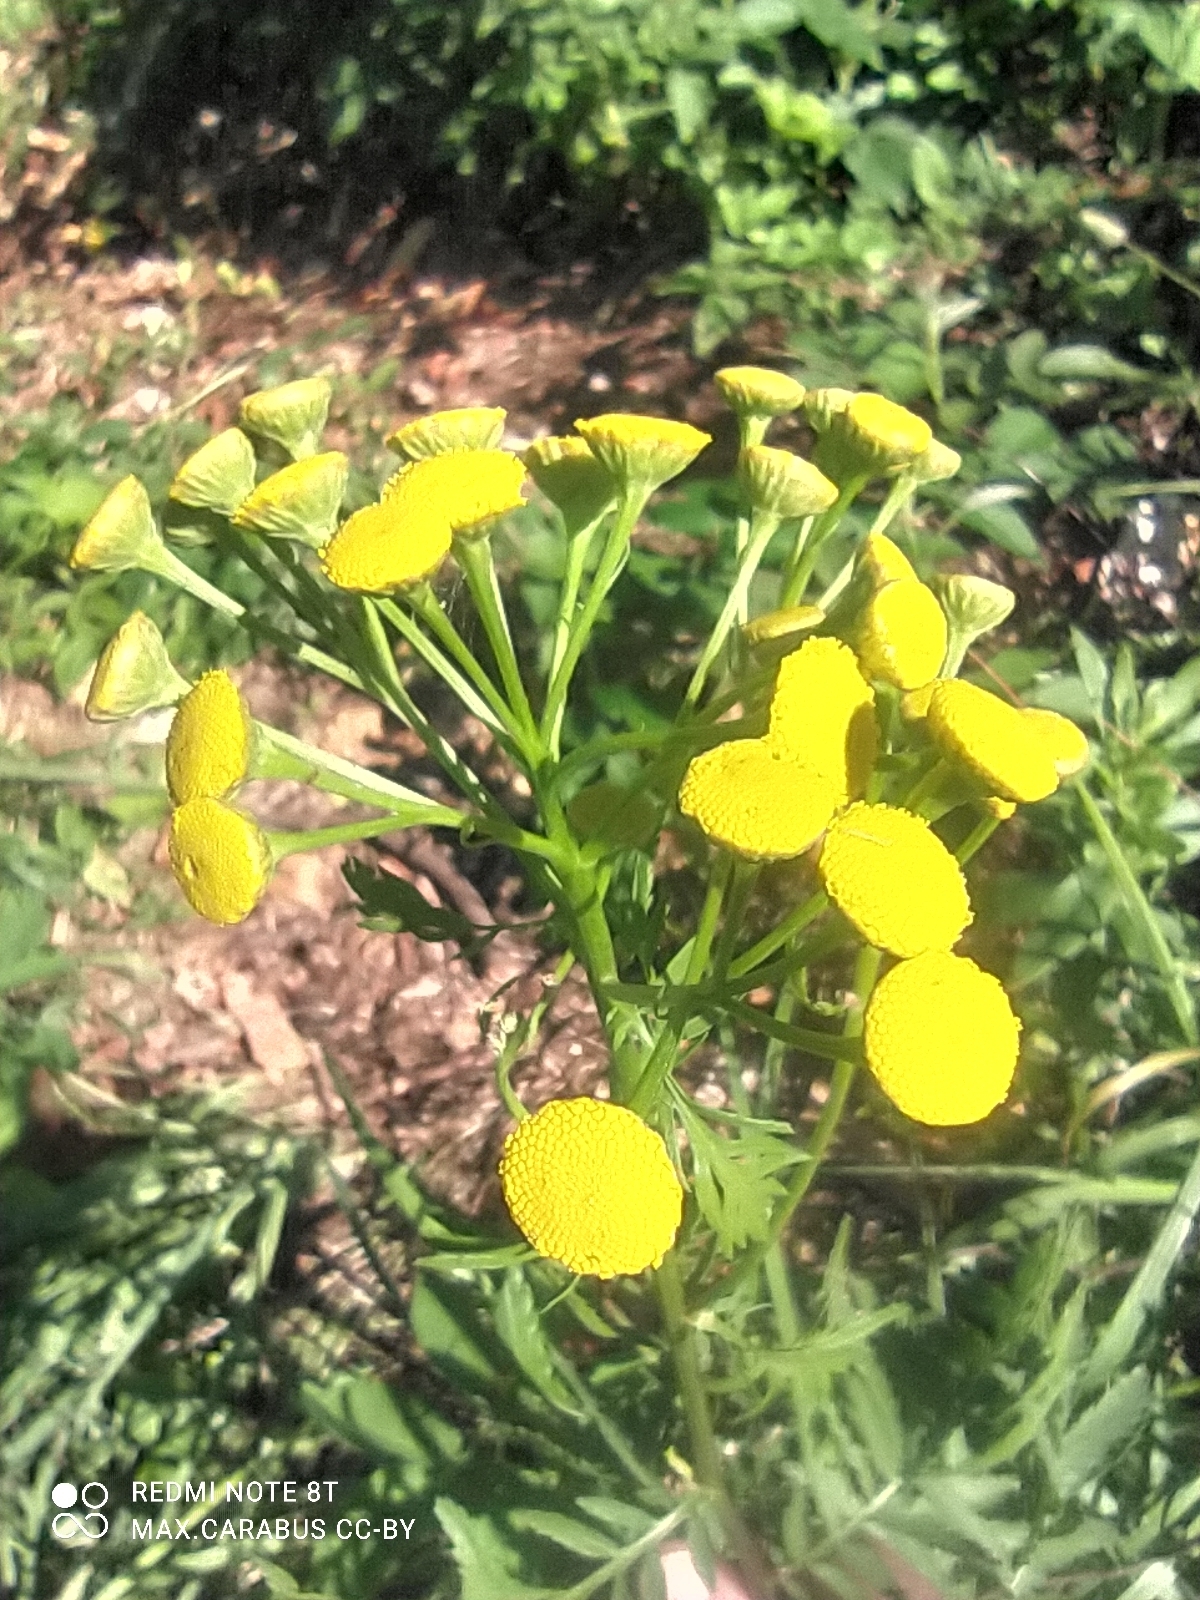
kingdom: Plantae
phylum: Tracheophyta
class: Magnoliopsida
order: Asterales
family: Asteraceae
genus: Tanacetum
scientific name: Tanacetum vulgare
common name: Common tansy
